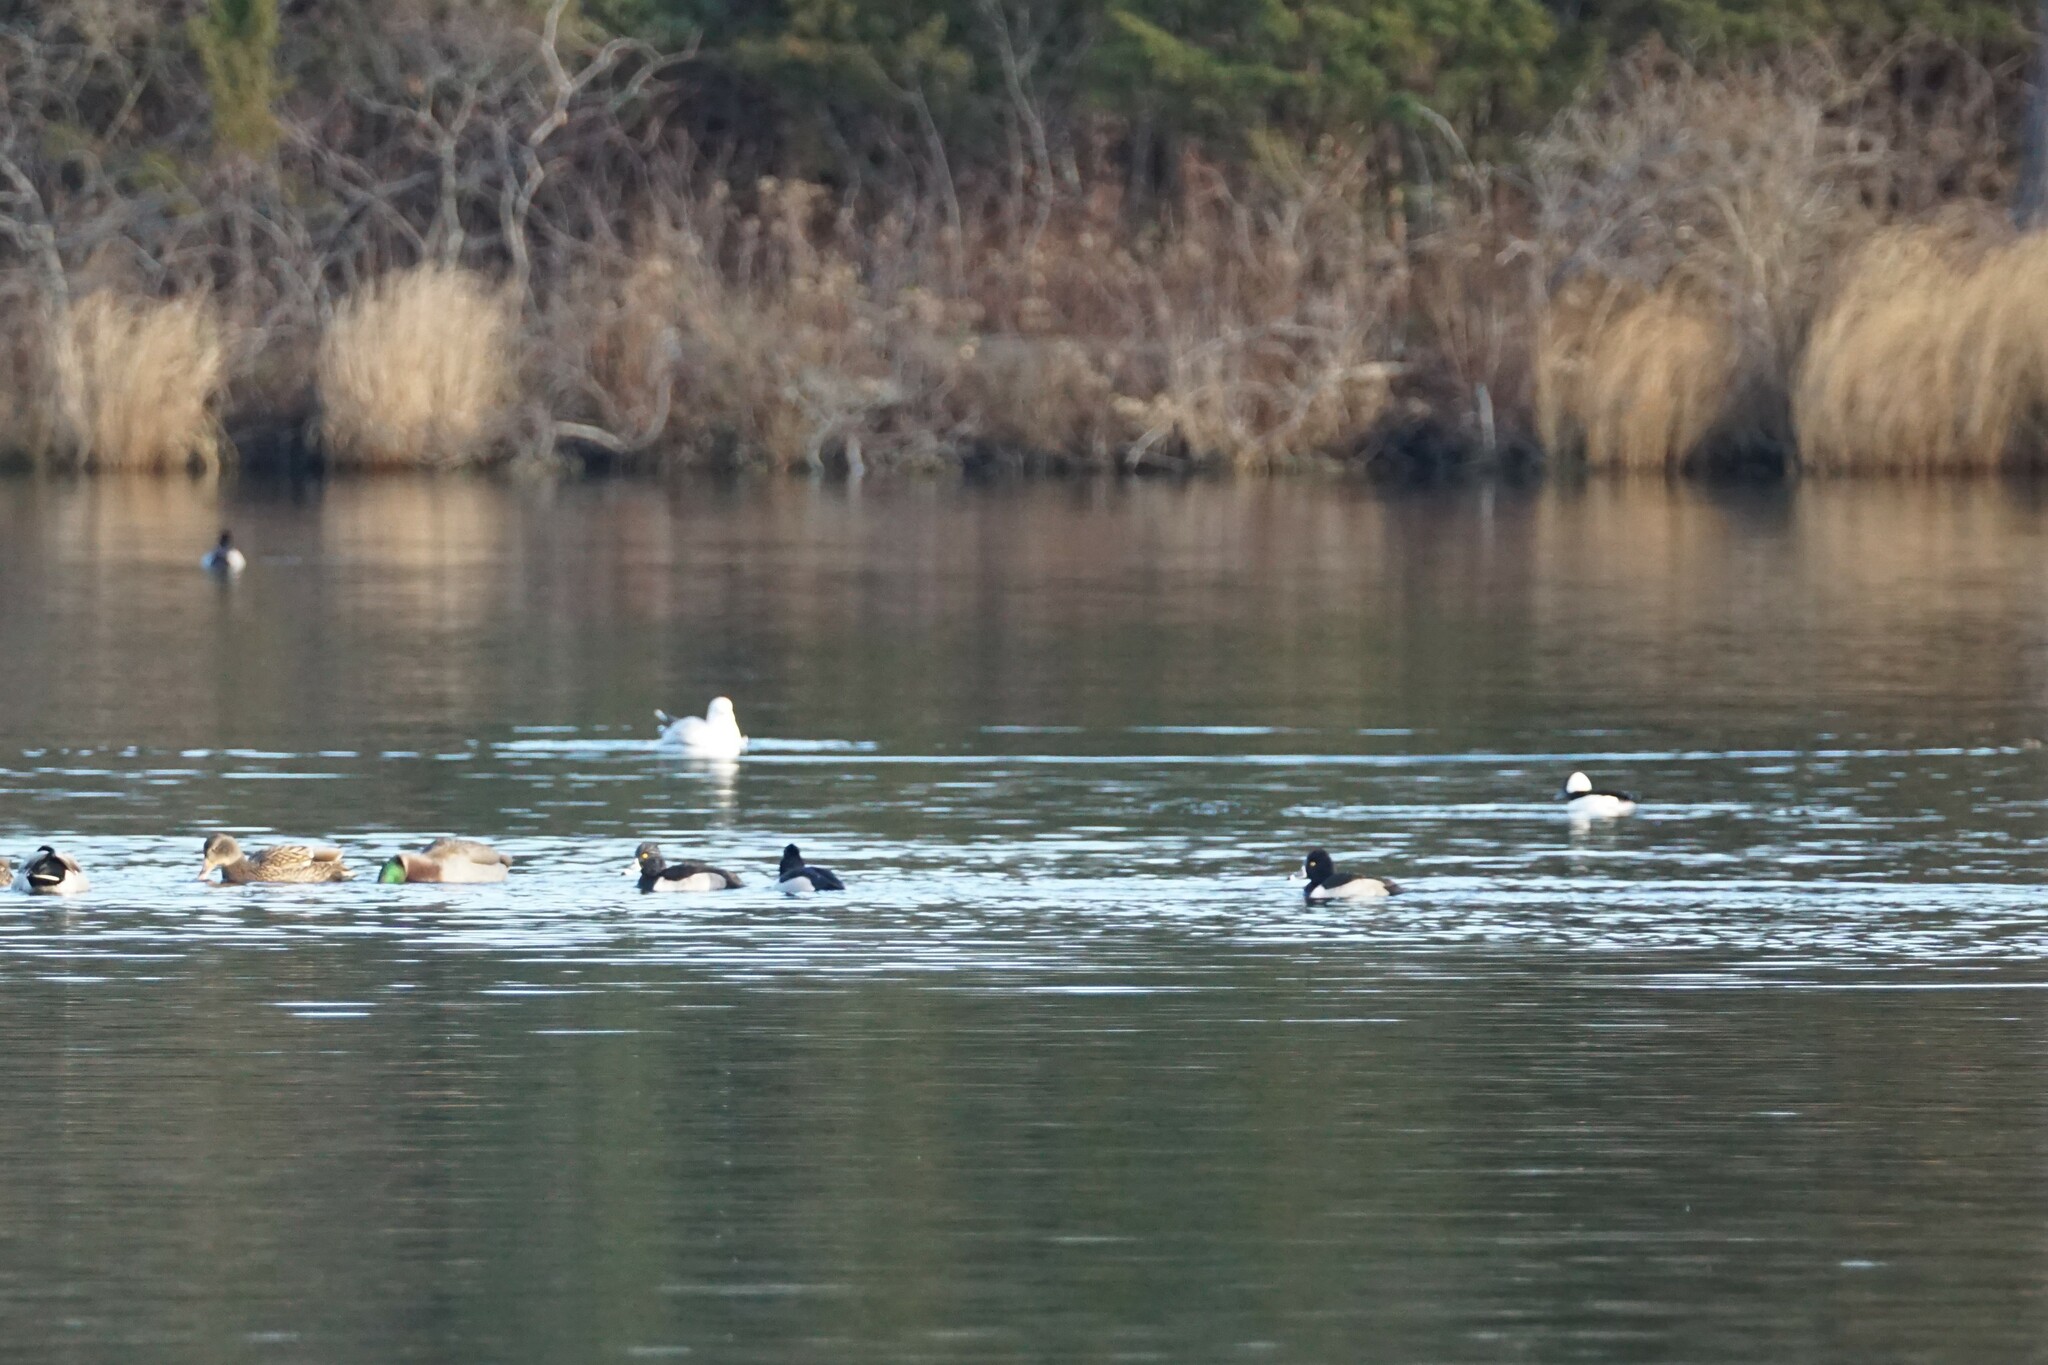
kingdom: Animalia
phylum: Chordata
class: Aves
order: Anseriformes
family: Anatidae
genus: Aythya
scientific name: Aythya collaris
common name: Ring-necked duck
